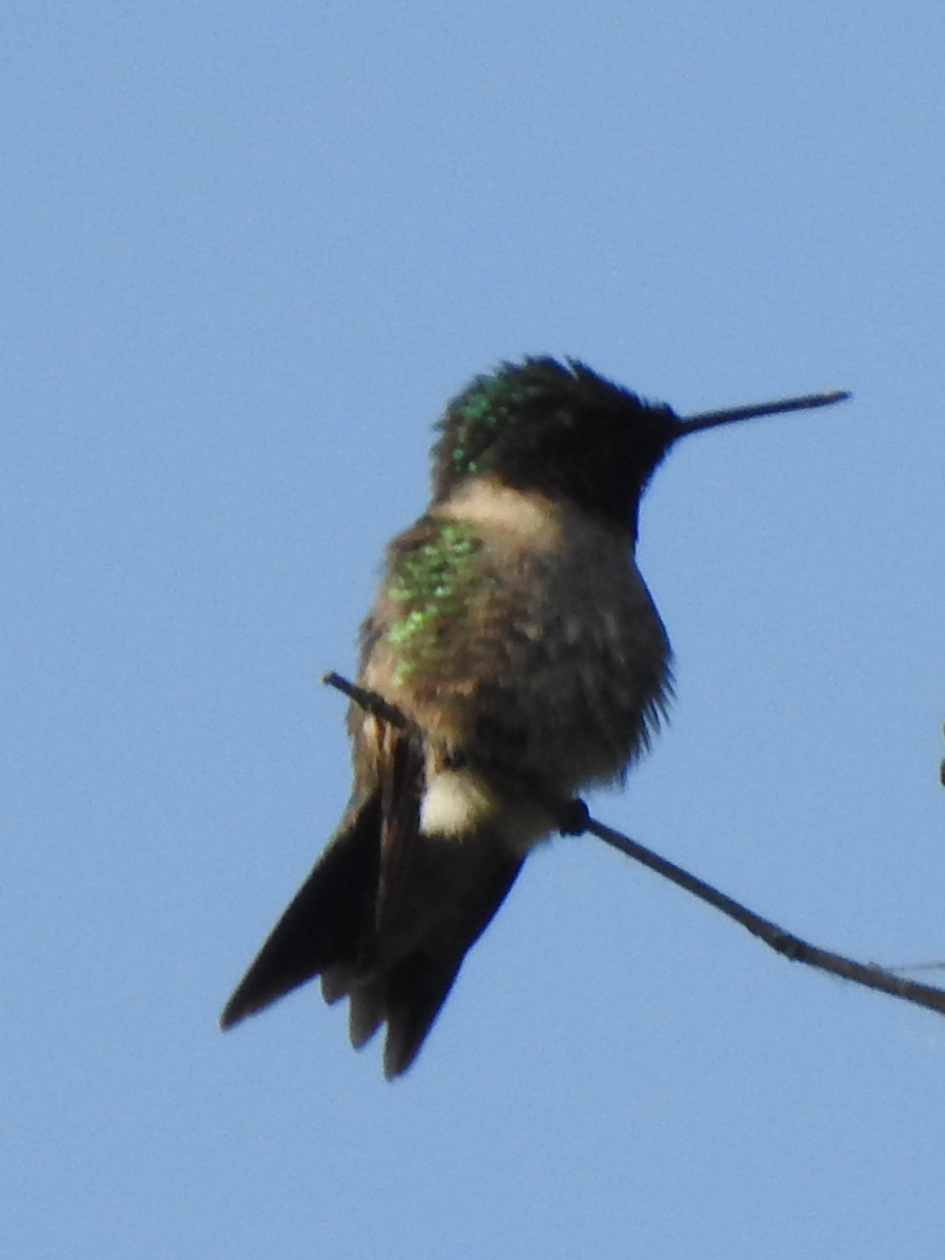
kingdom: Animalia
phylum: Chordata
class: Aves
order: Apodiformes
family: Trochilidae
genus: Archilochus
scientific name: Archilochus colubris
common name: Ruby-throated hummingbird
